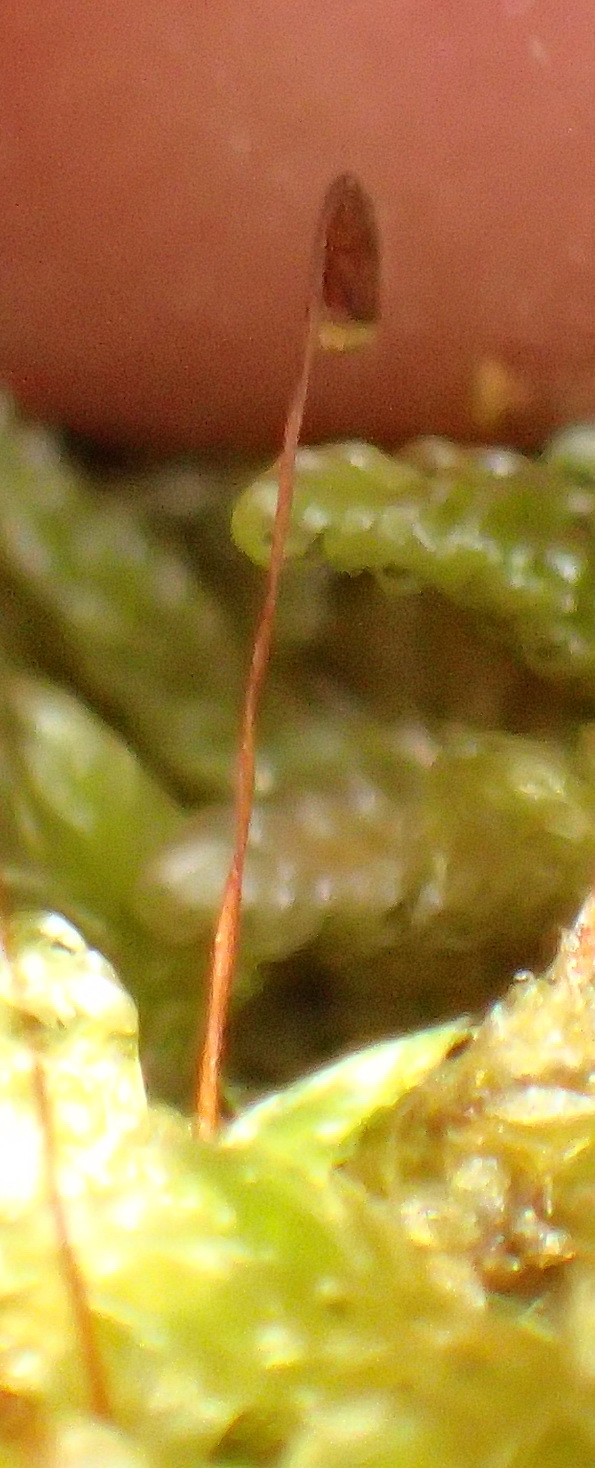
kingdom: Plantae
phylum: Bryophyta
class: Bryopsida
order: Hypnales
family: Hypnaceae
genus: Hypnum
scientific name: Hypnum cupressiforme
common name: Cypress-leaved plait-moss
